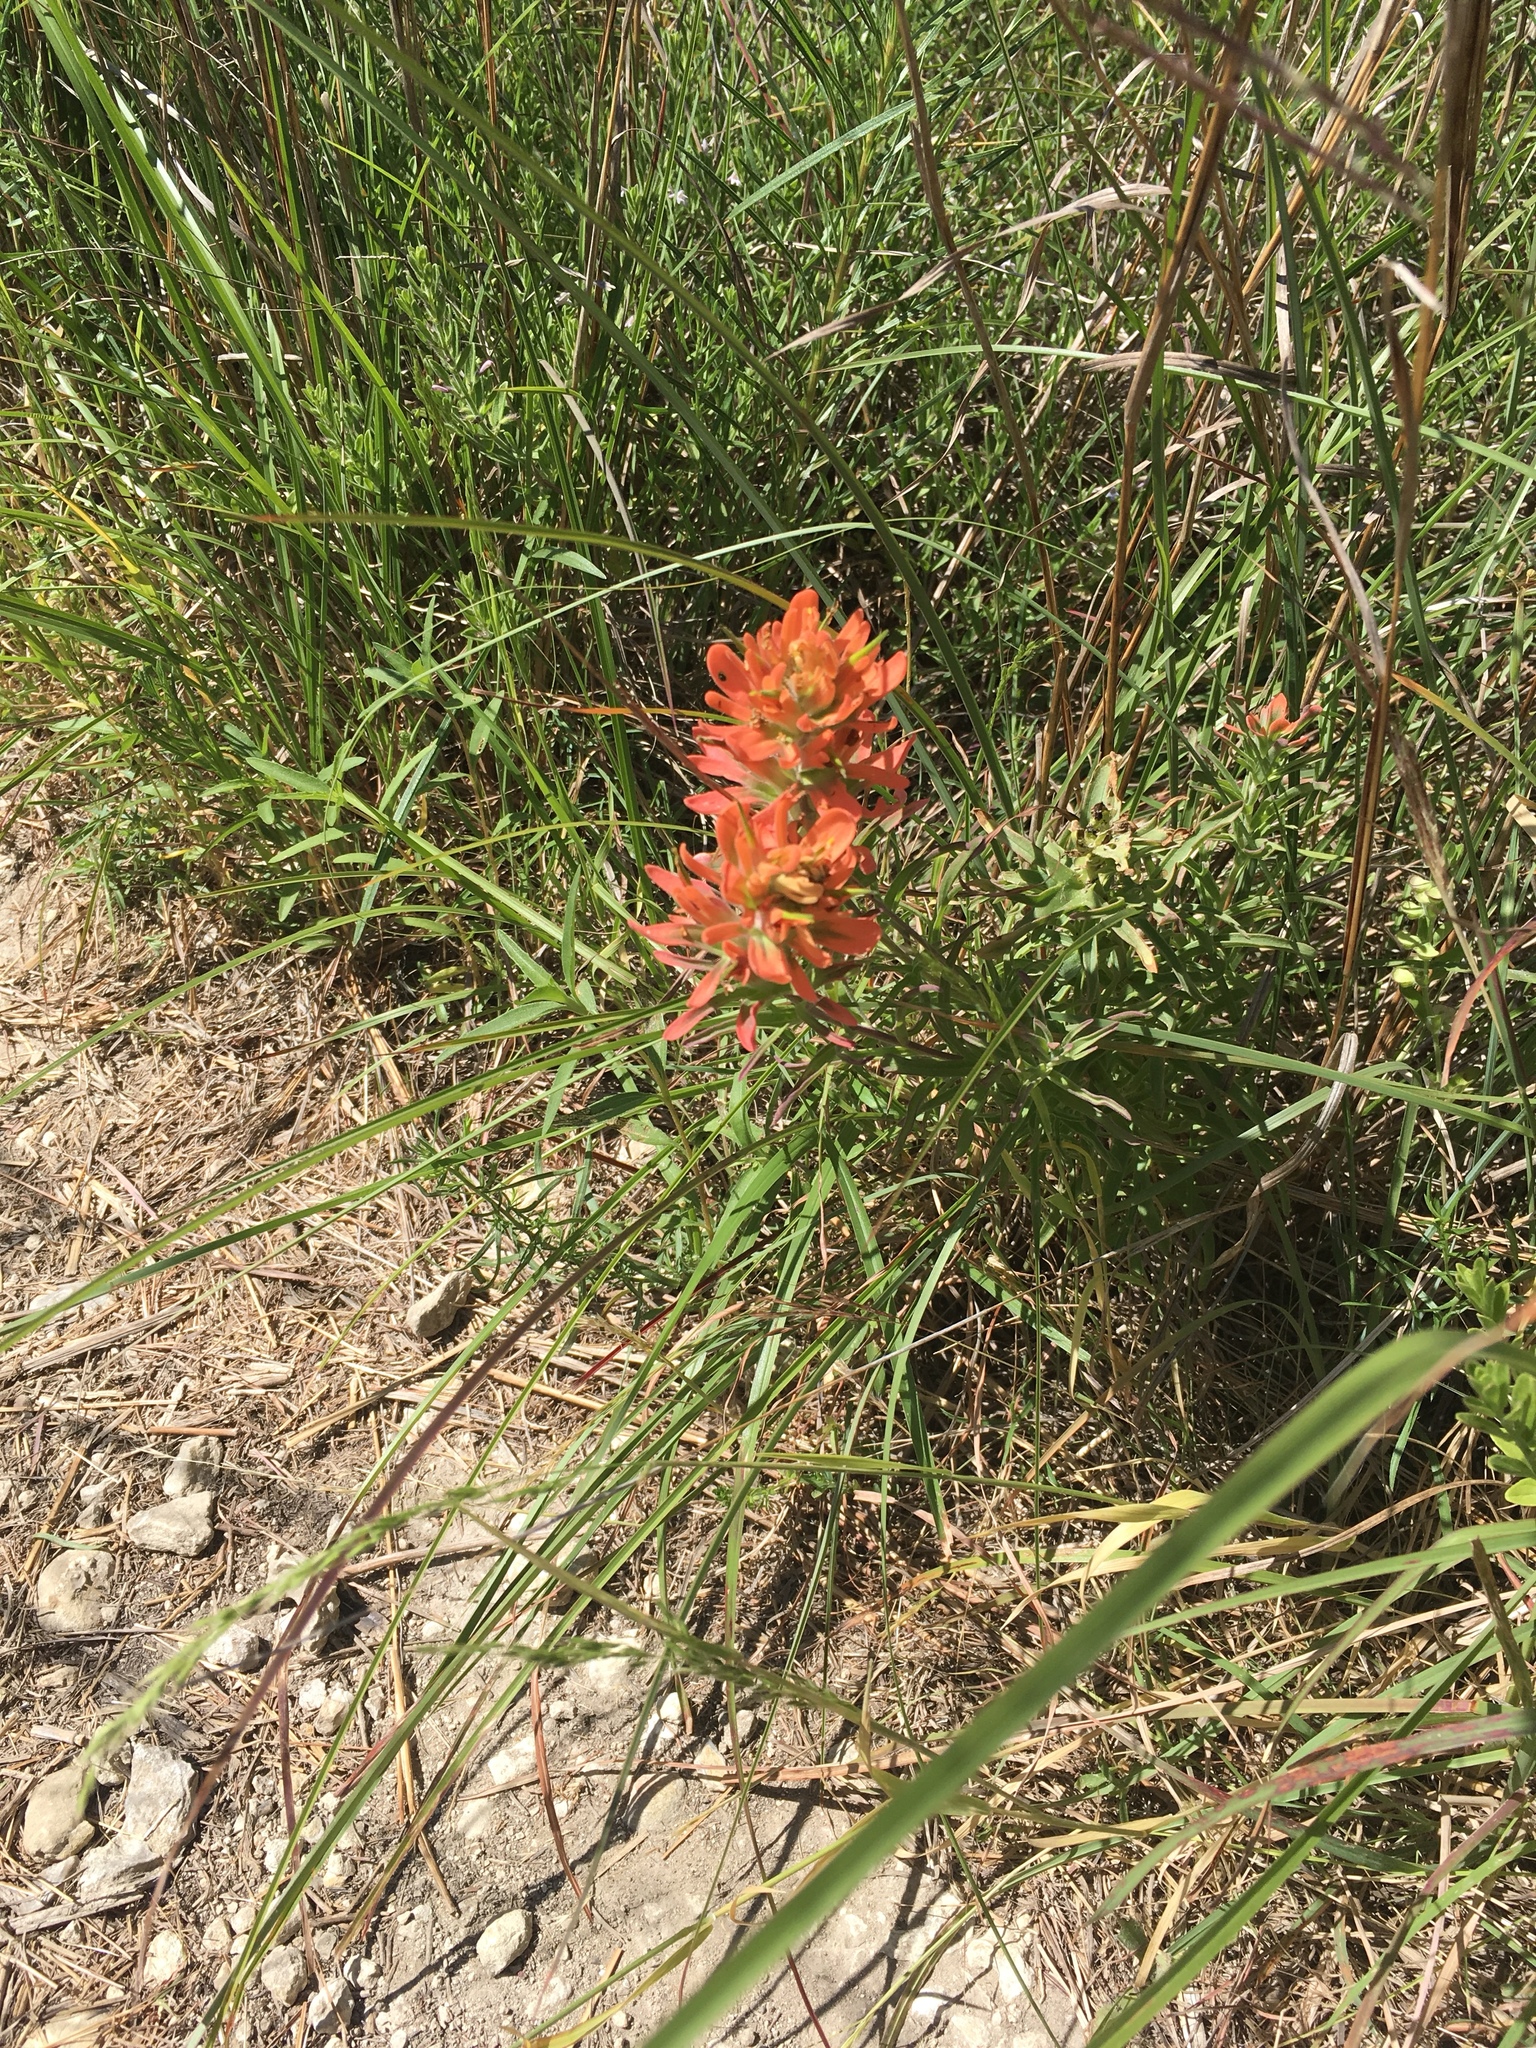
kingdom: Plantae
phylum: Tracheophyta
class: Magnoliopsida
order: Lamiales
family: Orobanchaceae
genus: Castilleja
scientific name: Castilleja lindheimeri
